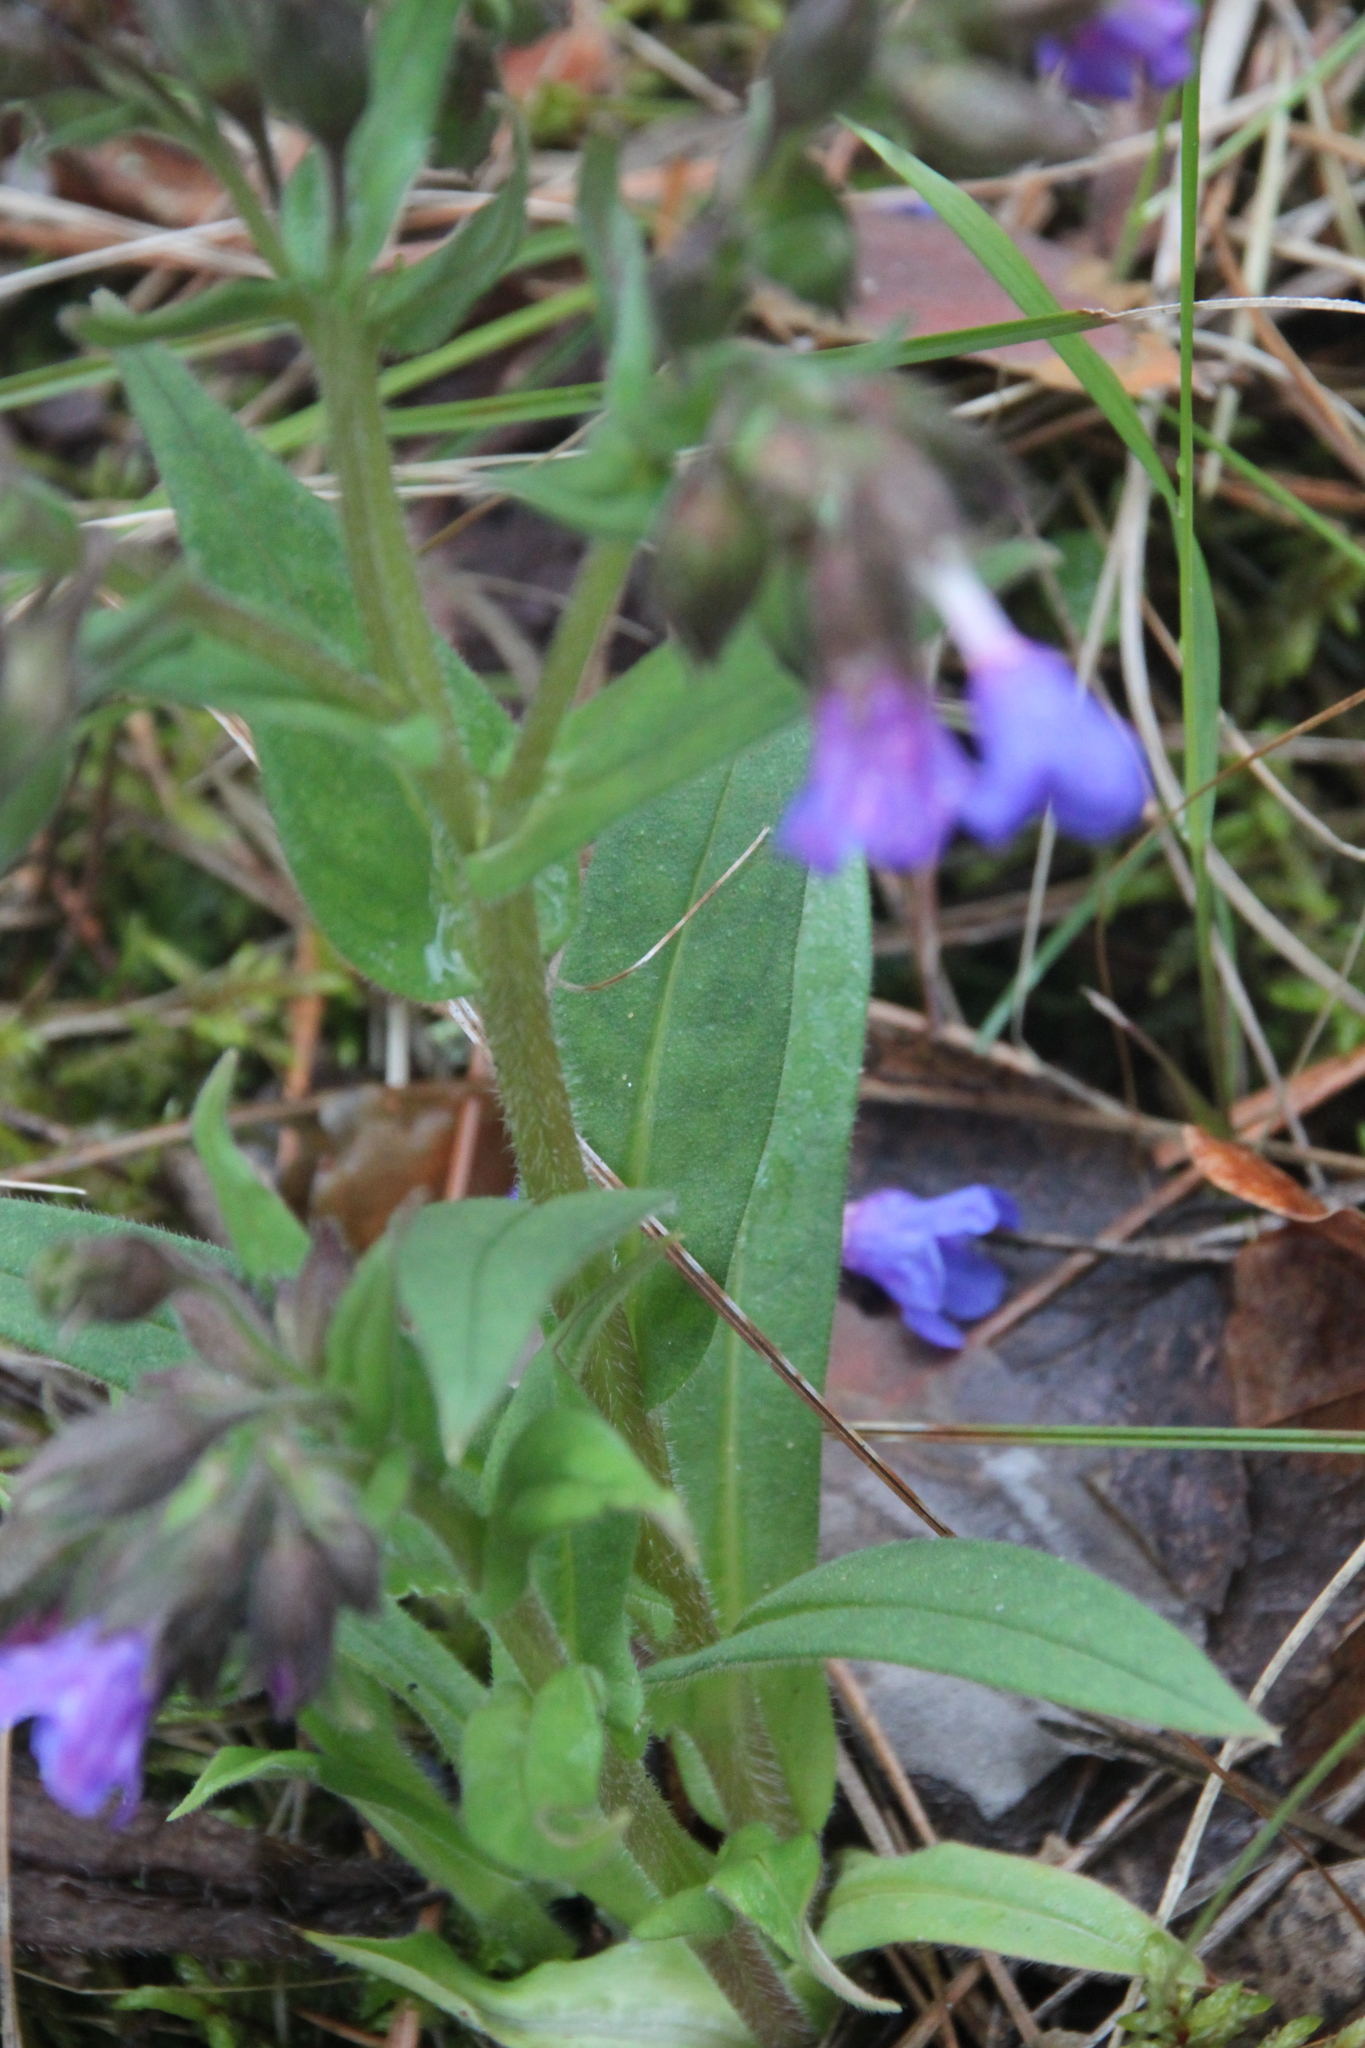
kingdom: Plantae
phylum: Tracheophyta
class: Magnoliopsida
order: Boraginales
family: Boraginaceae
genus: Pulmonaria
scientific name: Pulmonaria angustifolia
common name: Blue cowslip
